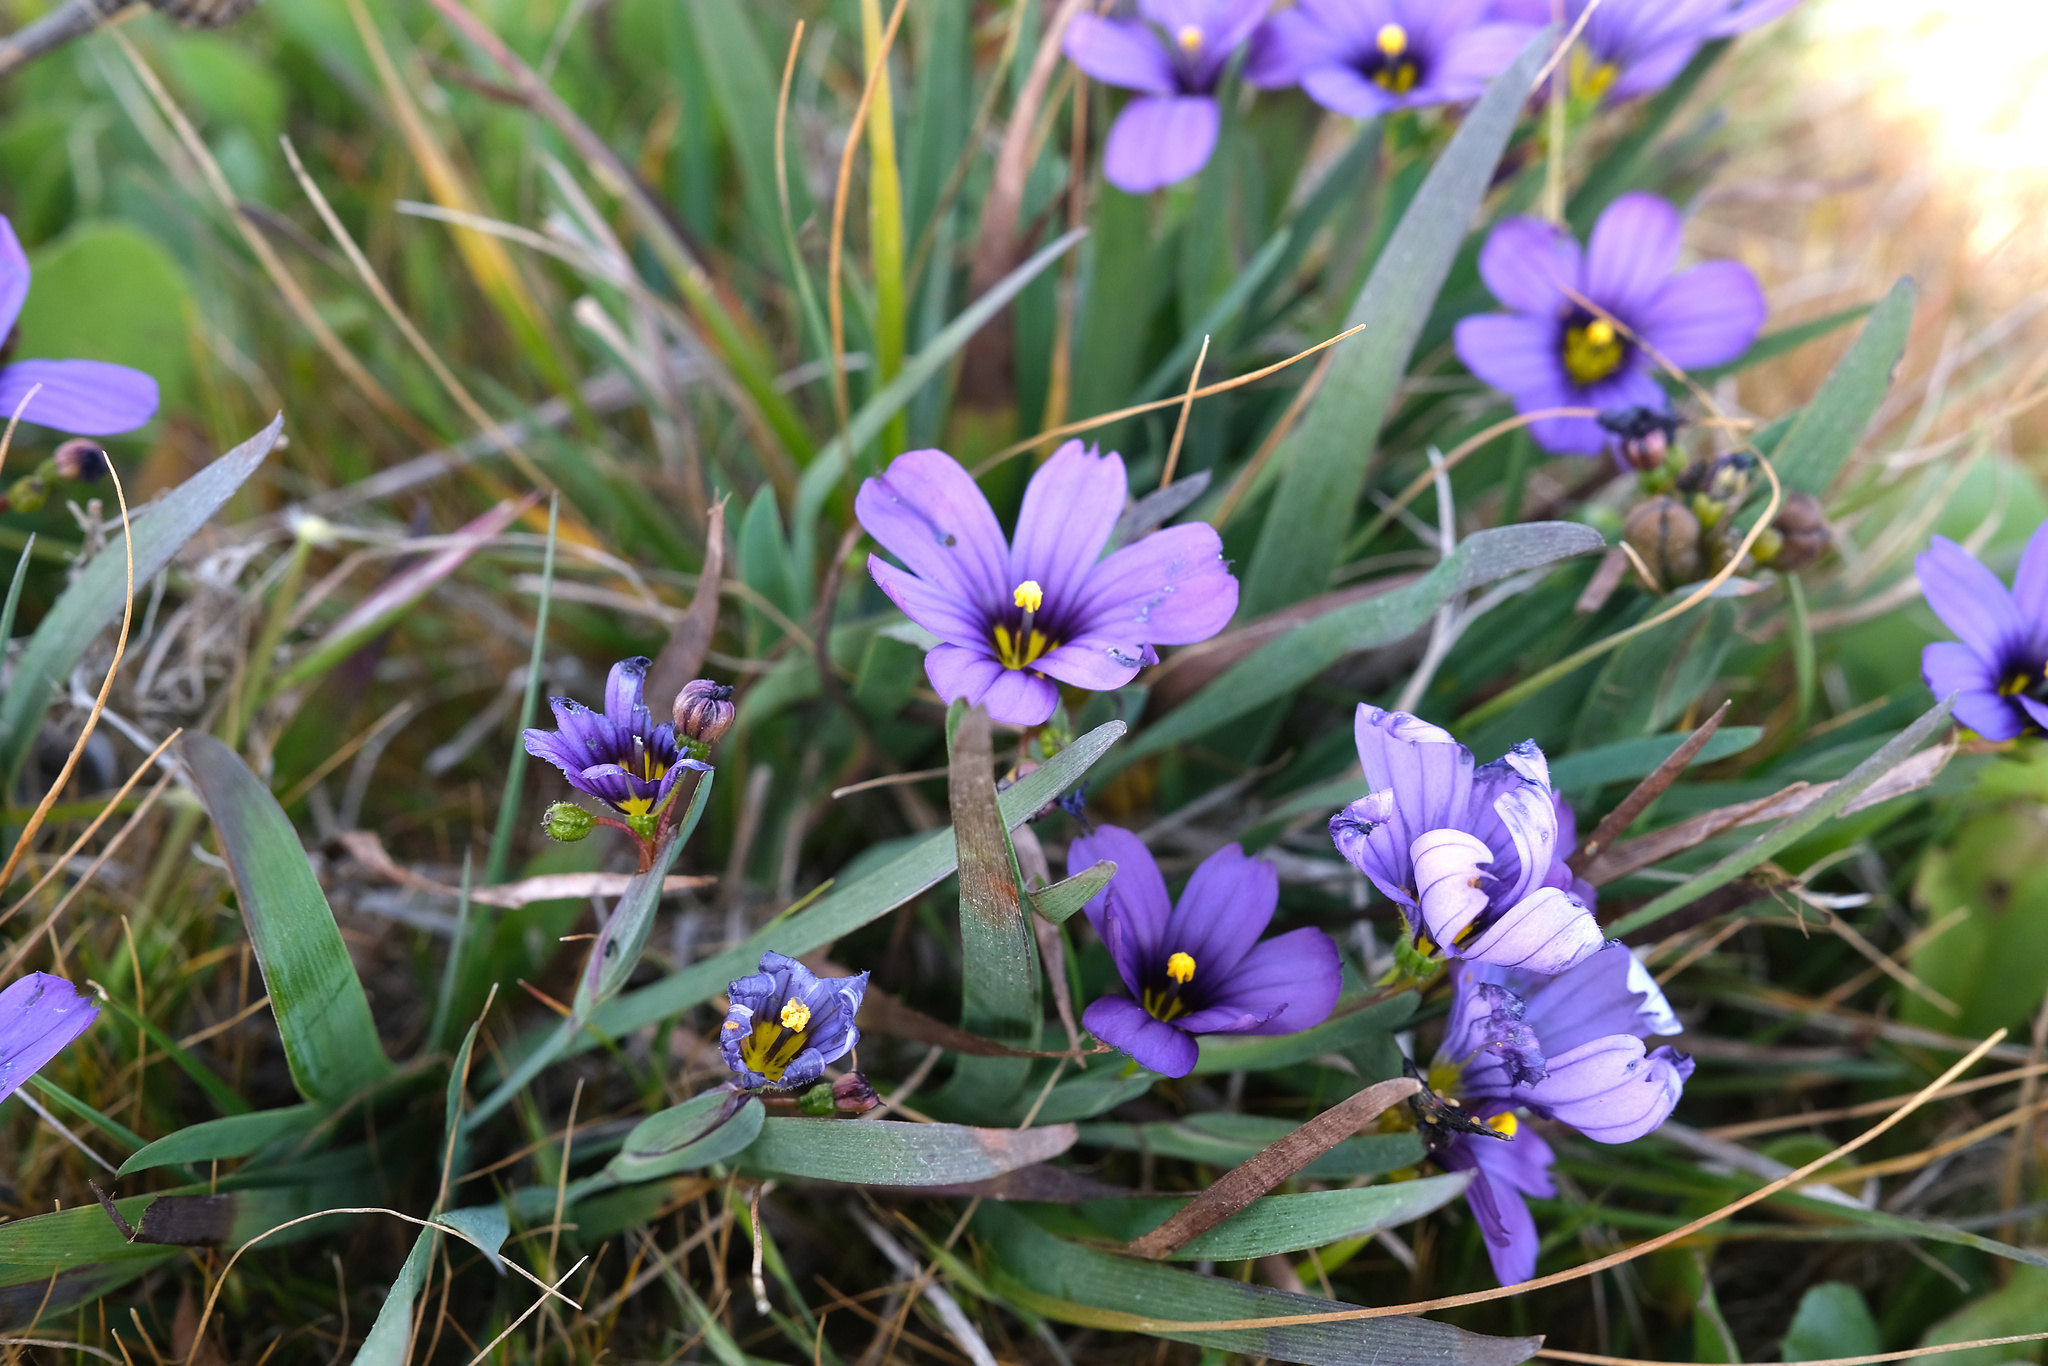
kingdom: Plantae
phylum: Tracheophyta
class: Liliopsida
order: Asparagales
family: Iridaceae
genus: Sisyrinchium
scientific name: Sisyrinchium bellum
